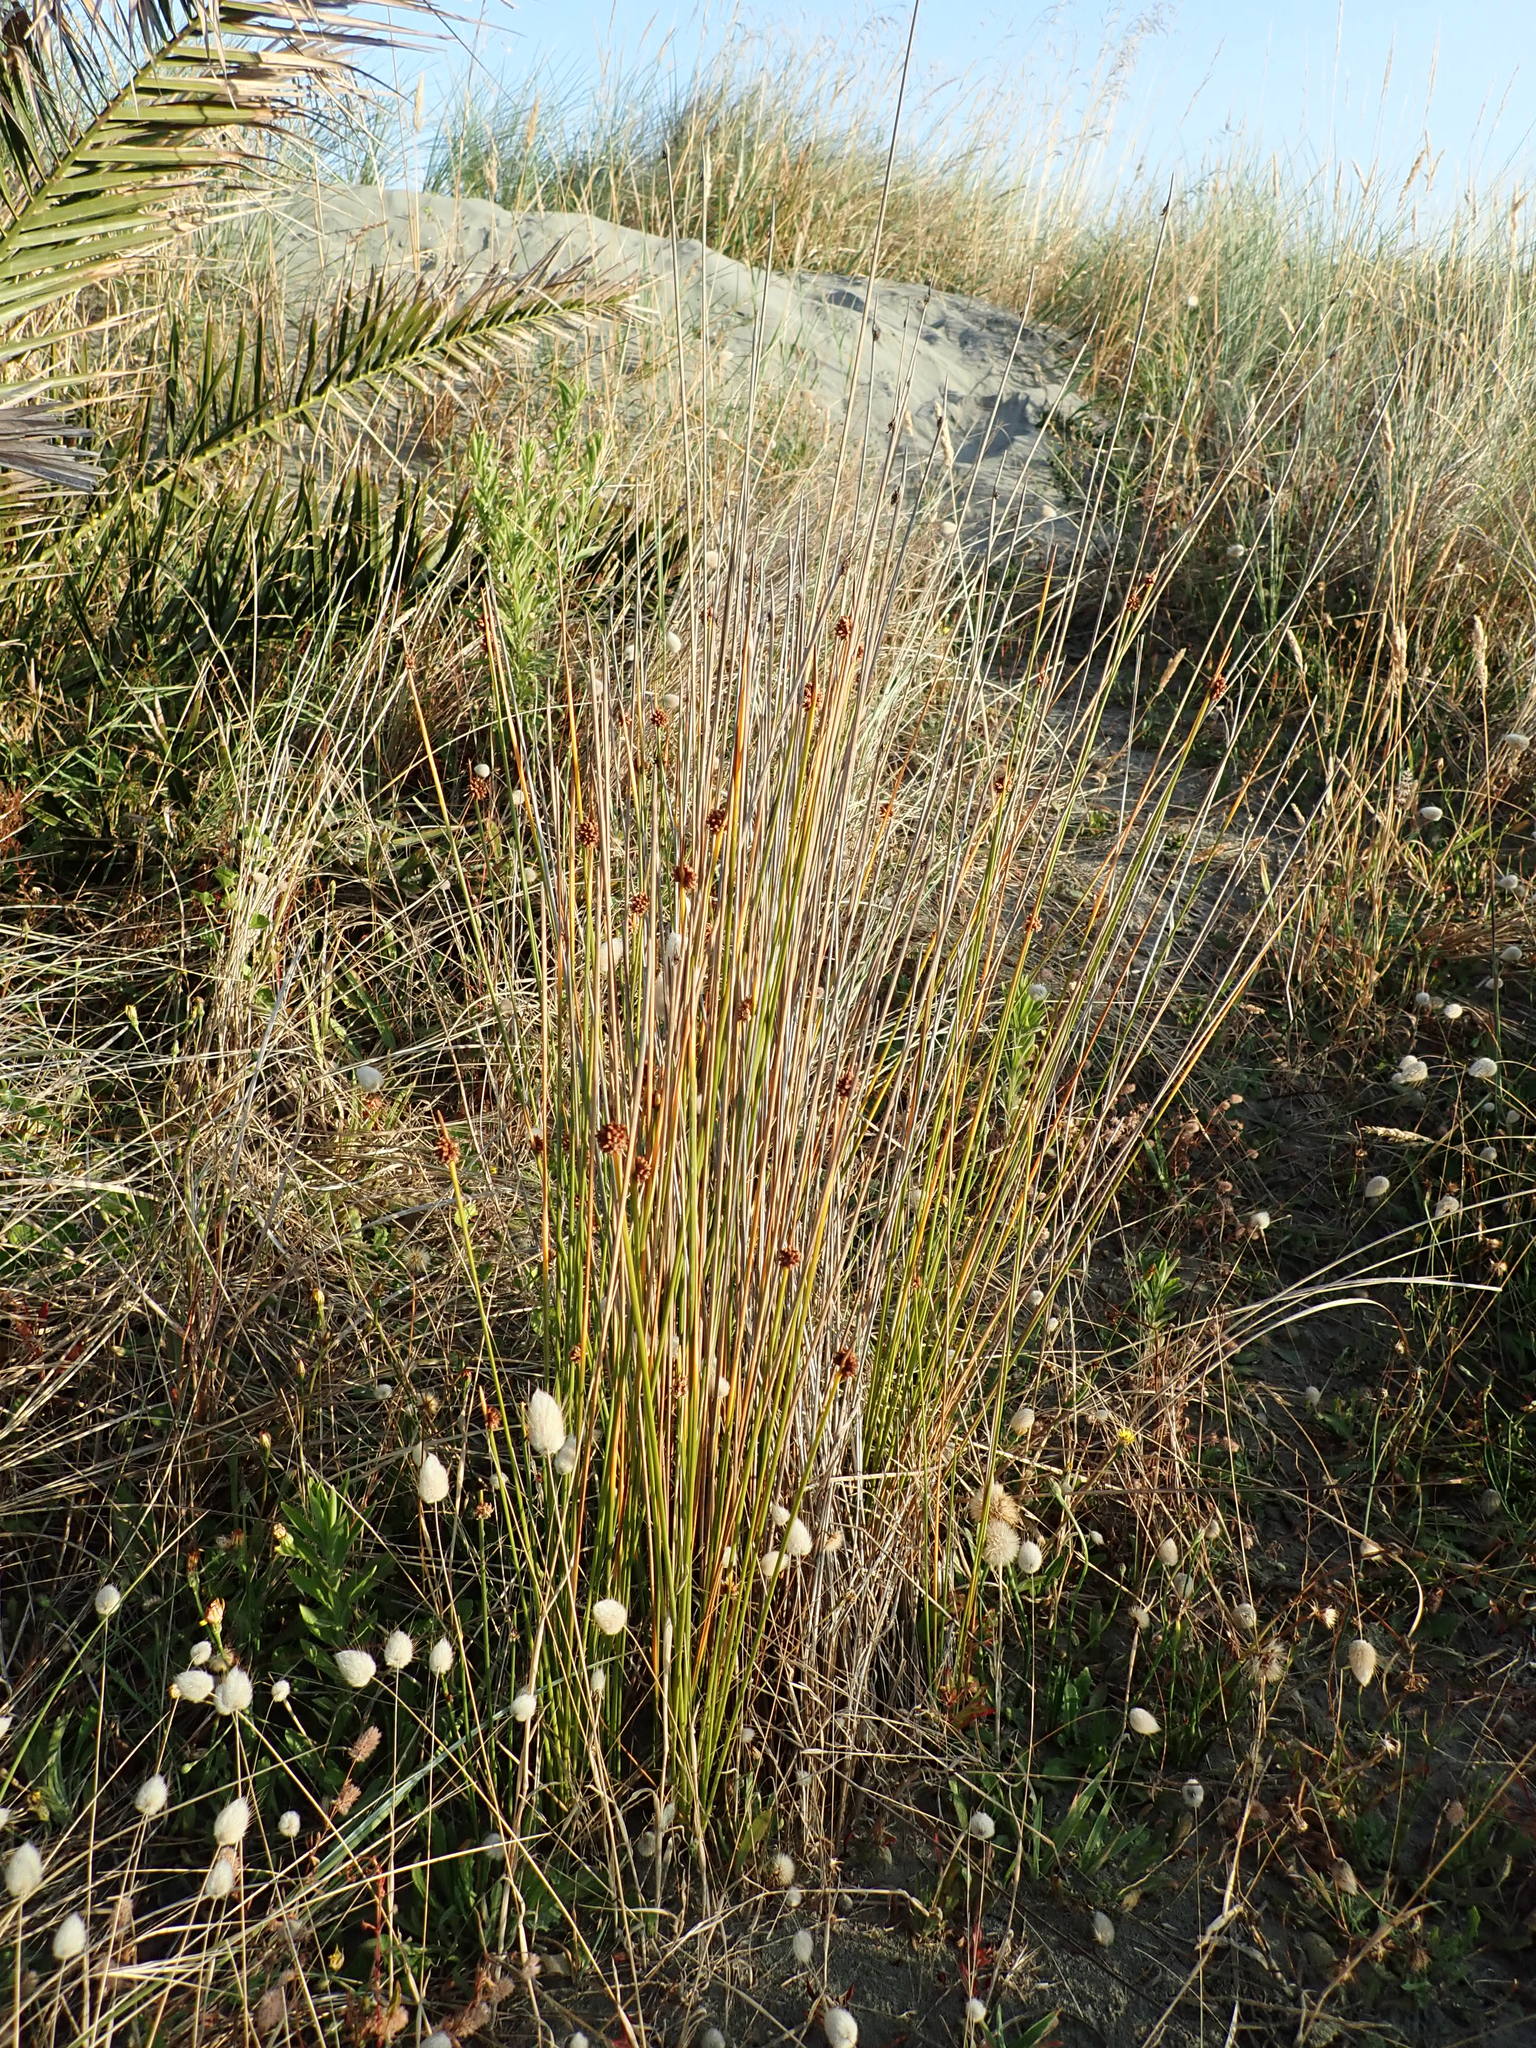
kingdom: Plantae
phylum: Tracheophyta
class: Liliopsida
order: Poales
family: Cyperaceae
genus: Ficinia
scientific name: Ficinia nodosa
